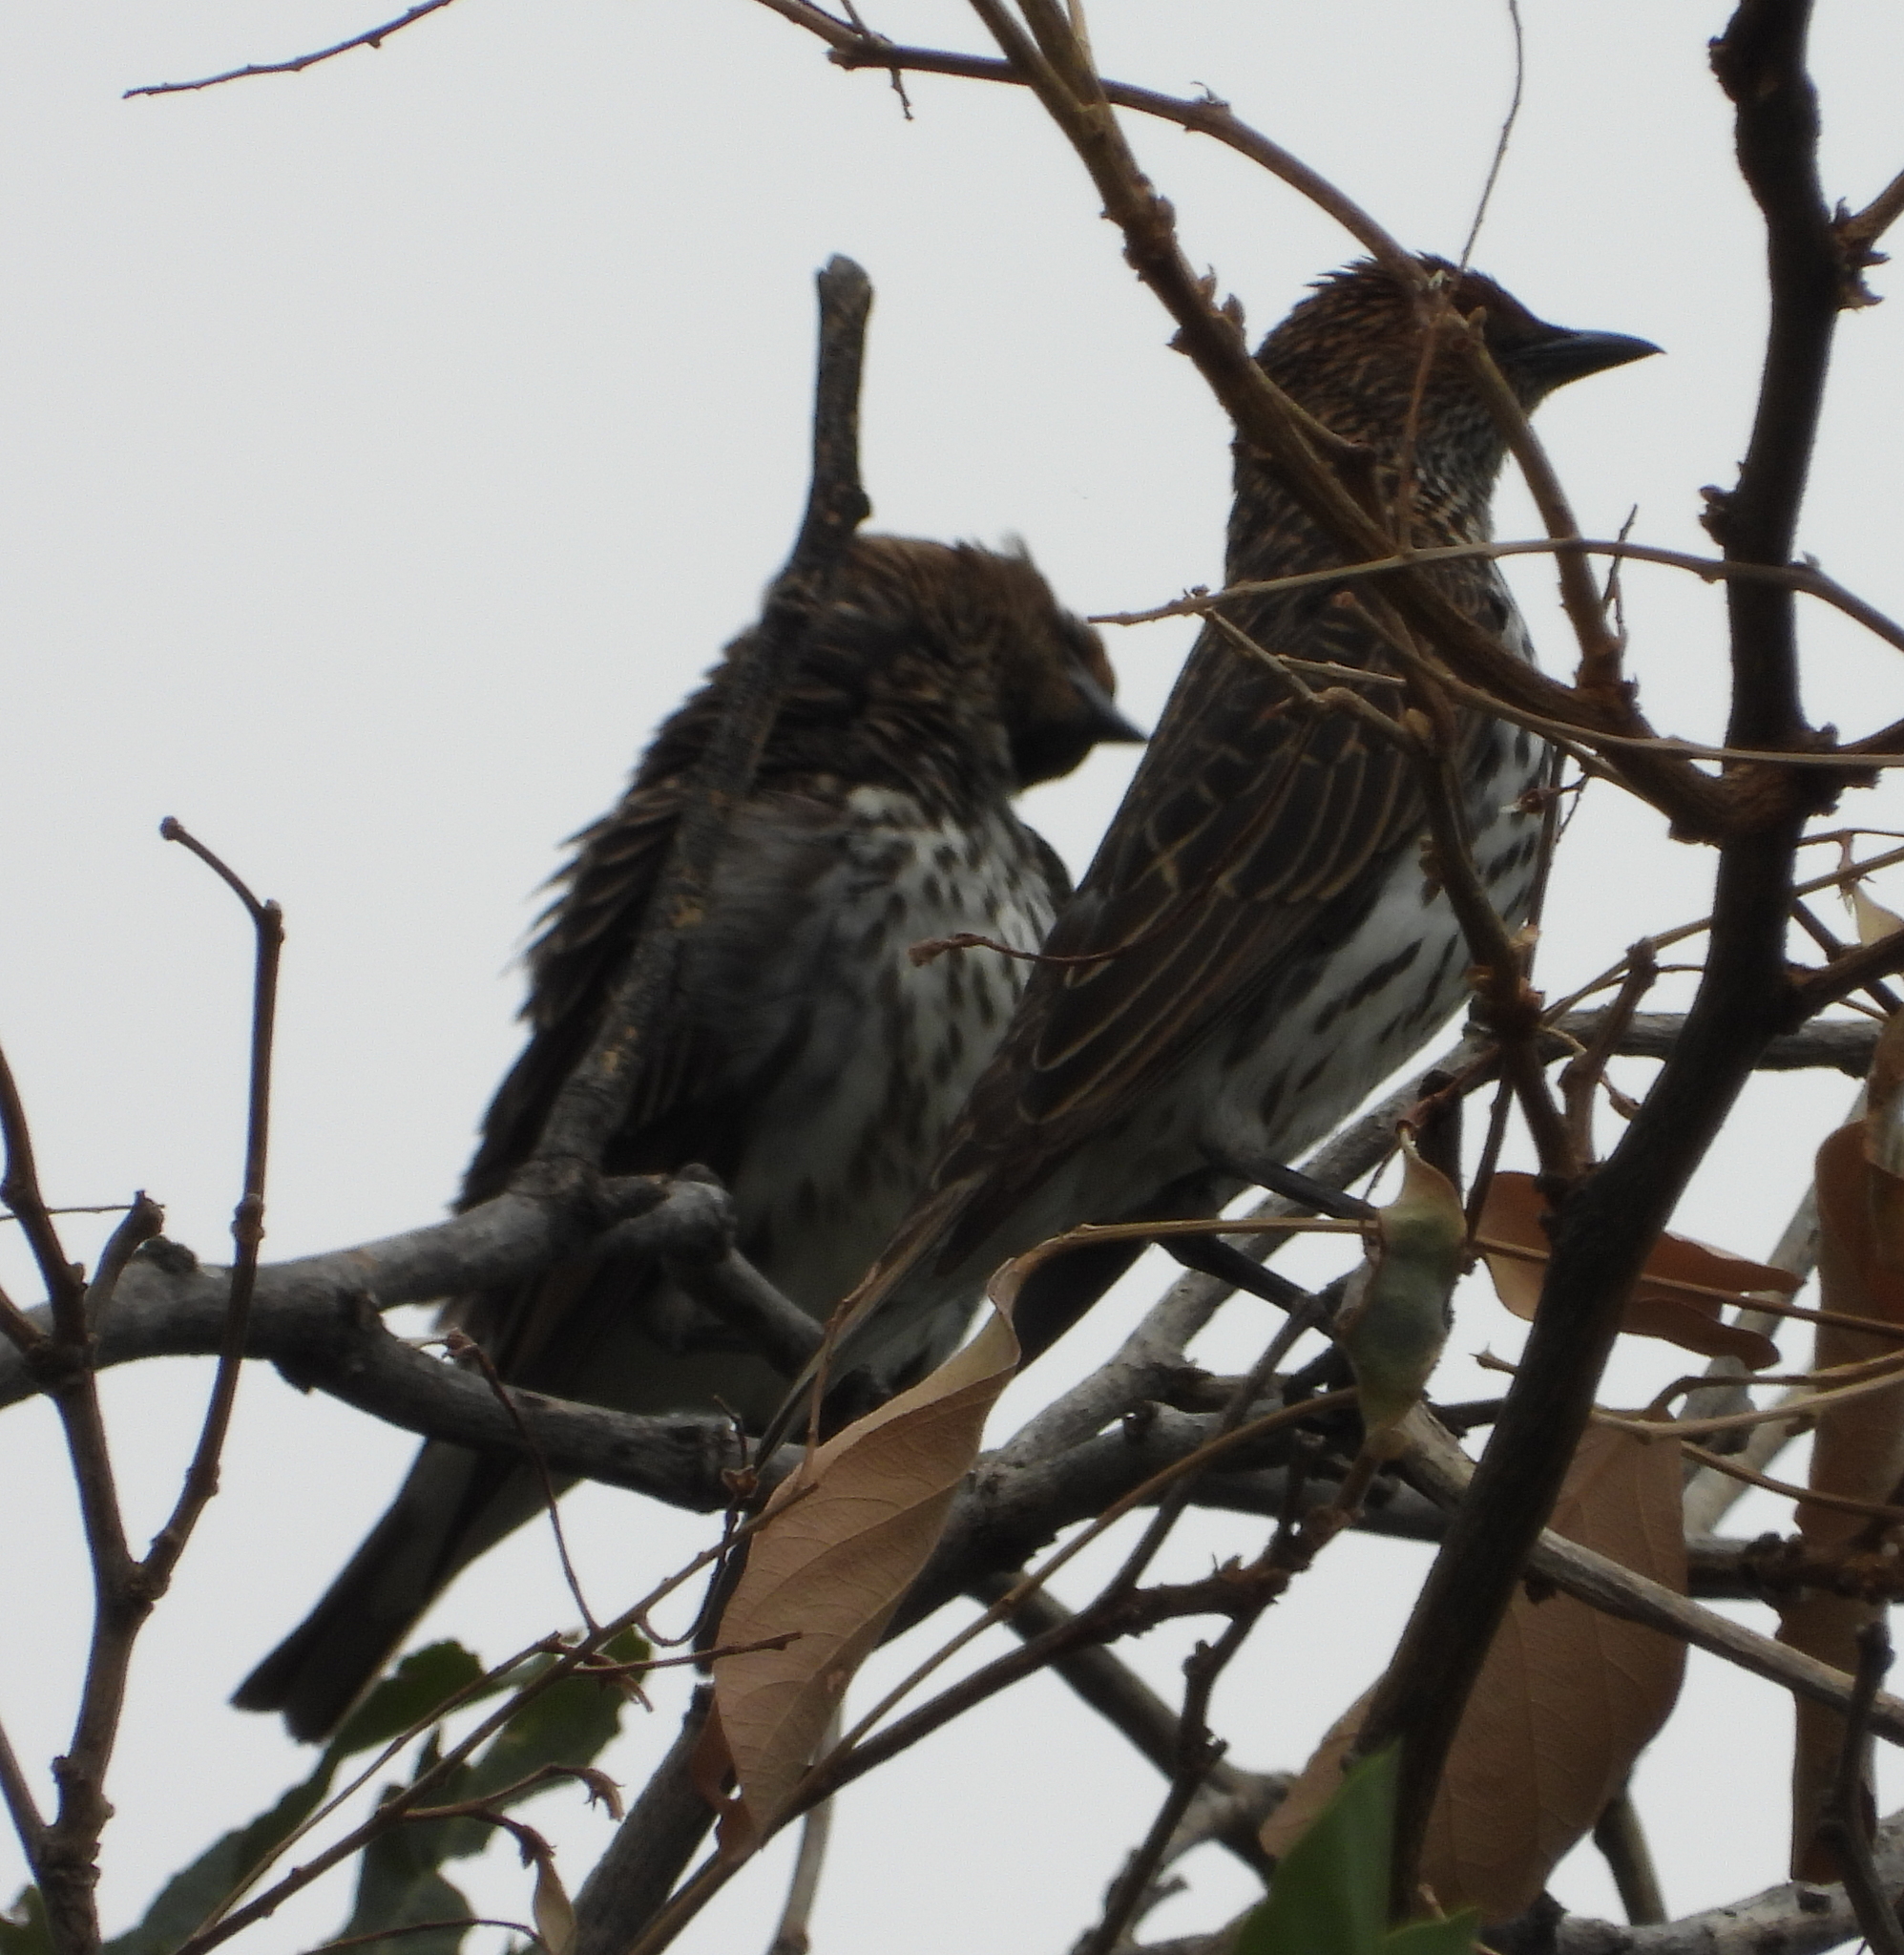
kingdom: Animalia
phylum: Chordata
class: Aves
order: Passeriformes
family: Sturnidae
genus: Cinnyricinclus
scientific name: Cinnyricinclus leucogaster
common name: Violet-backed starling
